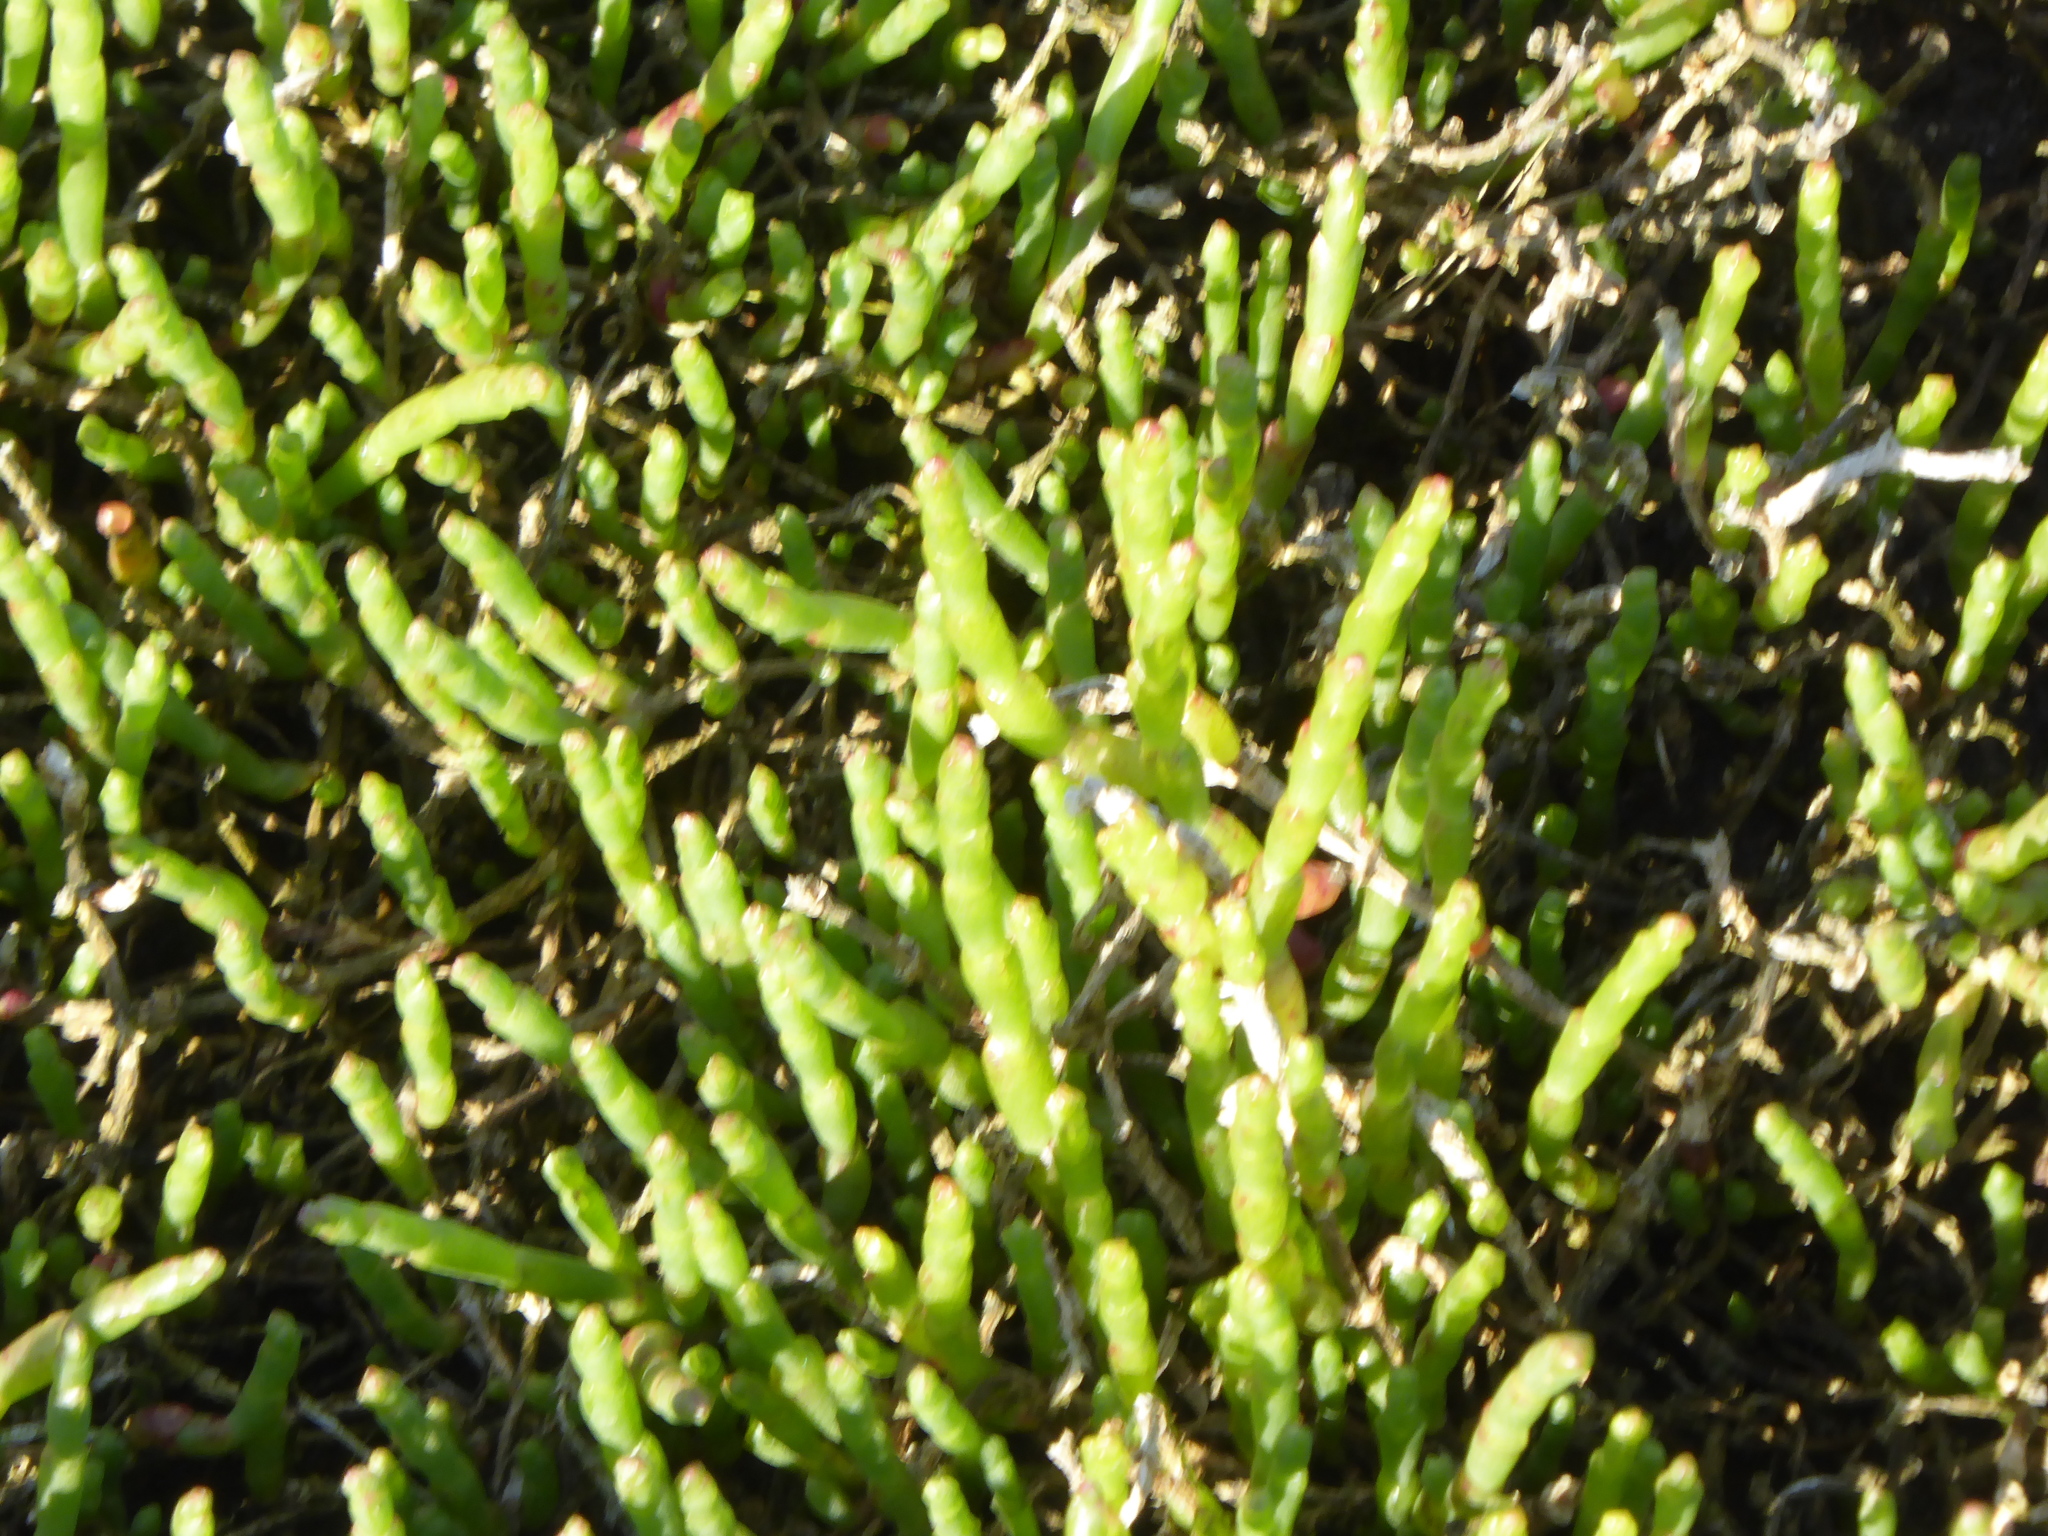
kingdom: Plantae
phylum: Tracheophyta
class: Magnoliopsida
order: Caryophyllales
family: Amaranthaceae
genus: Salicornia
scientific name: Salicornia quinqueflora
